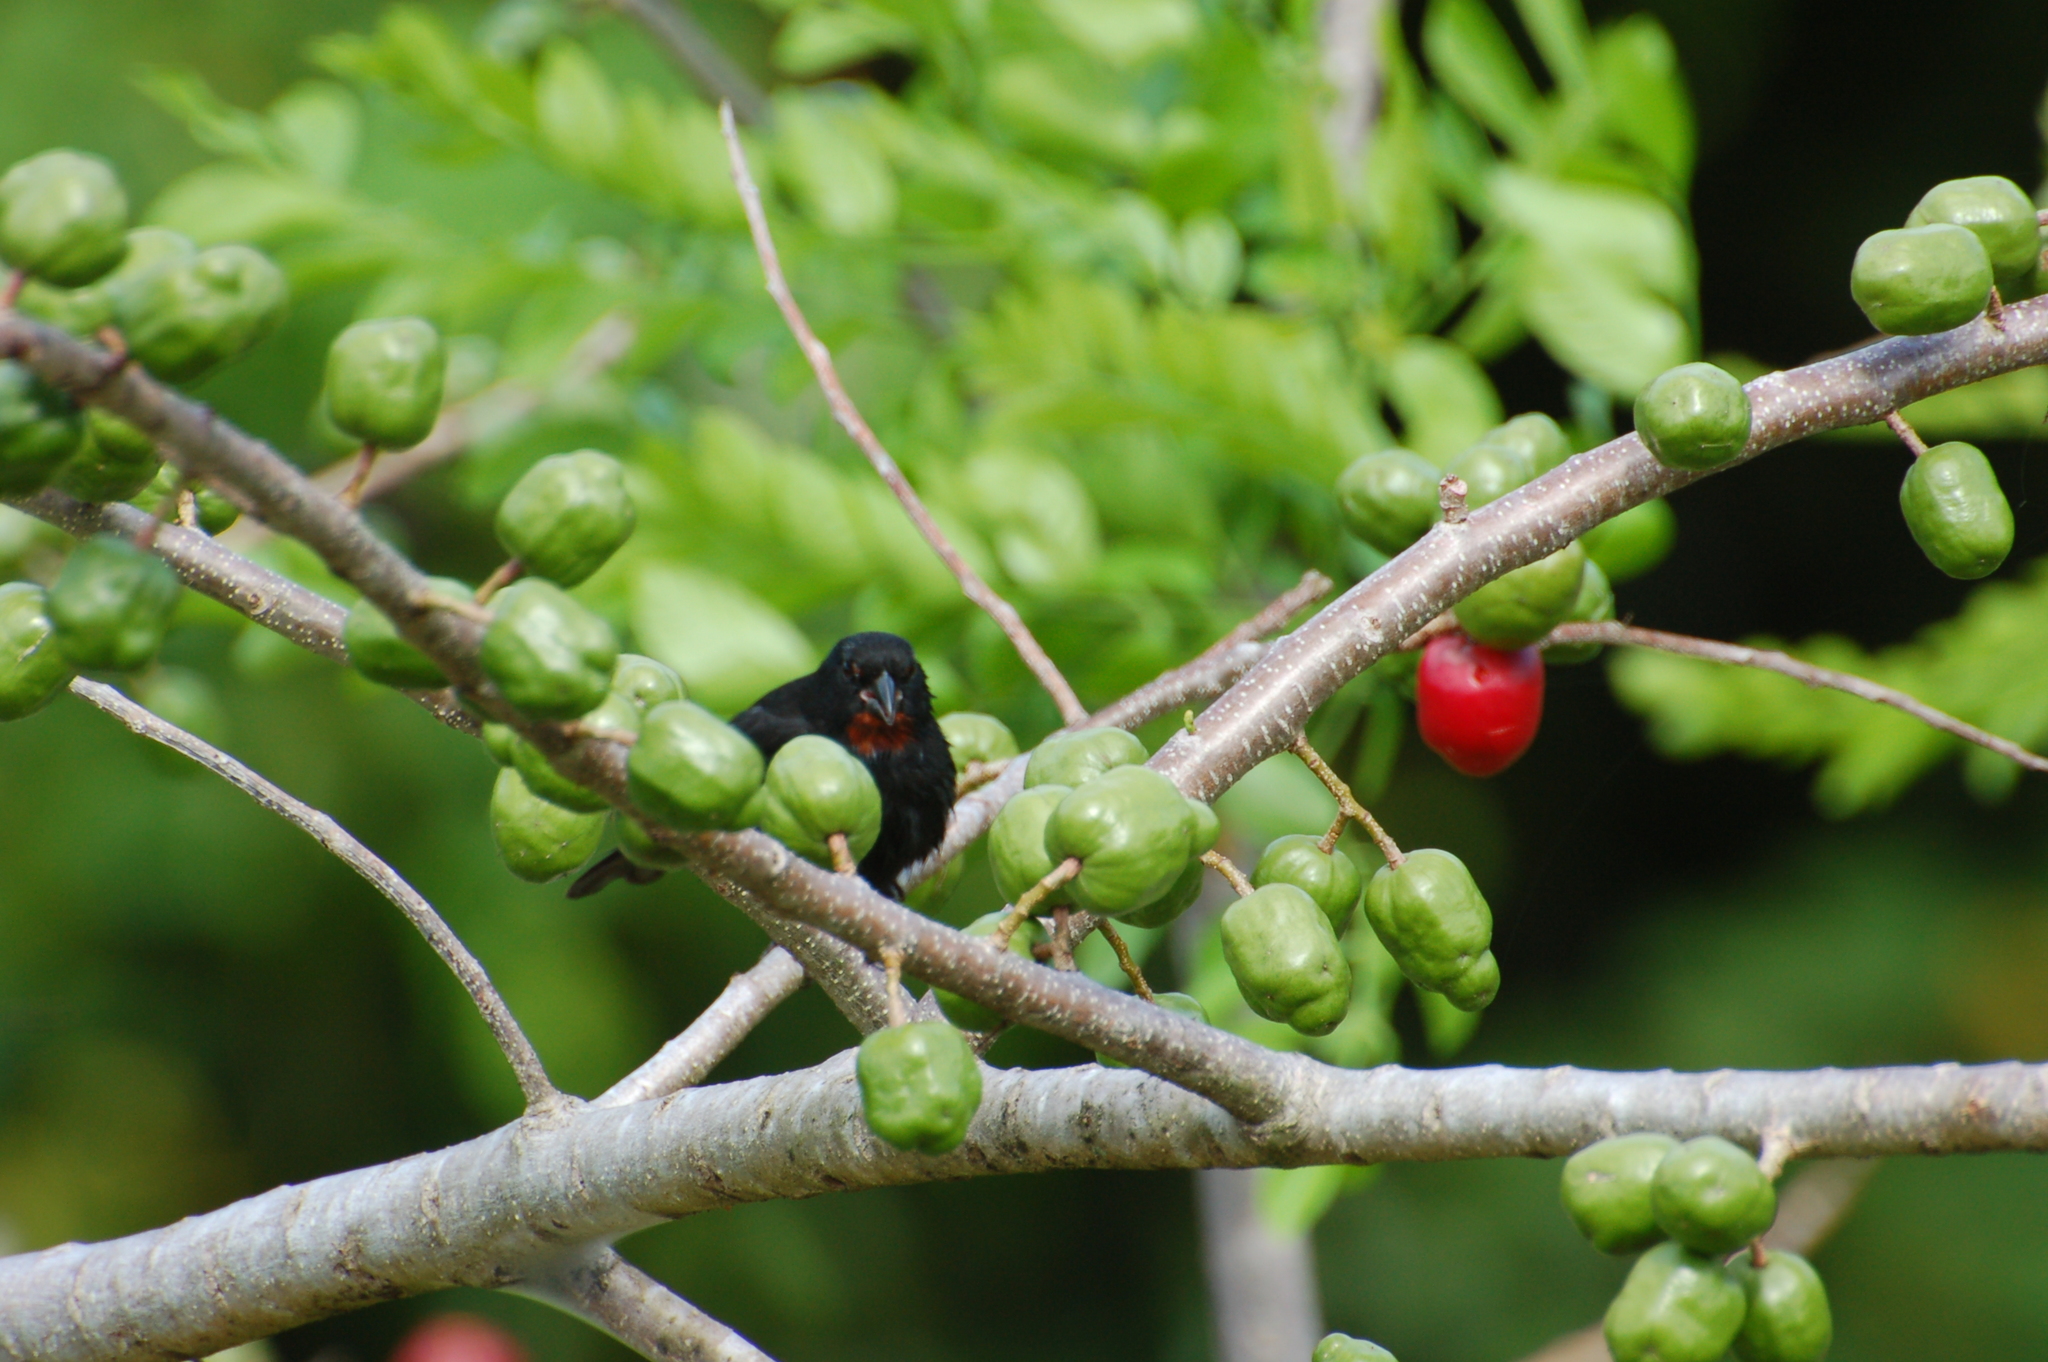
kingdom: Animalia
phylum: Chordata
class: Aves
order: Passeriformes
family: Thraupidae
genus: Loxigilla
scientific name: Loxigilla noctis
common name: Lesser antillean bullfinch
